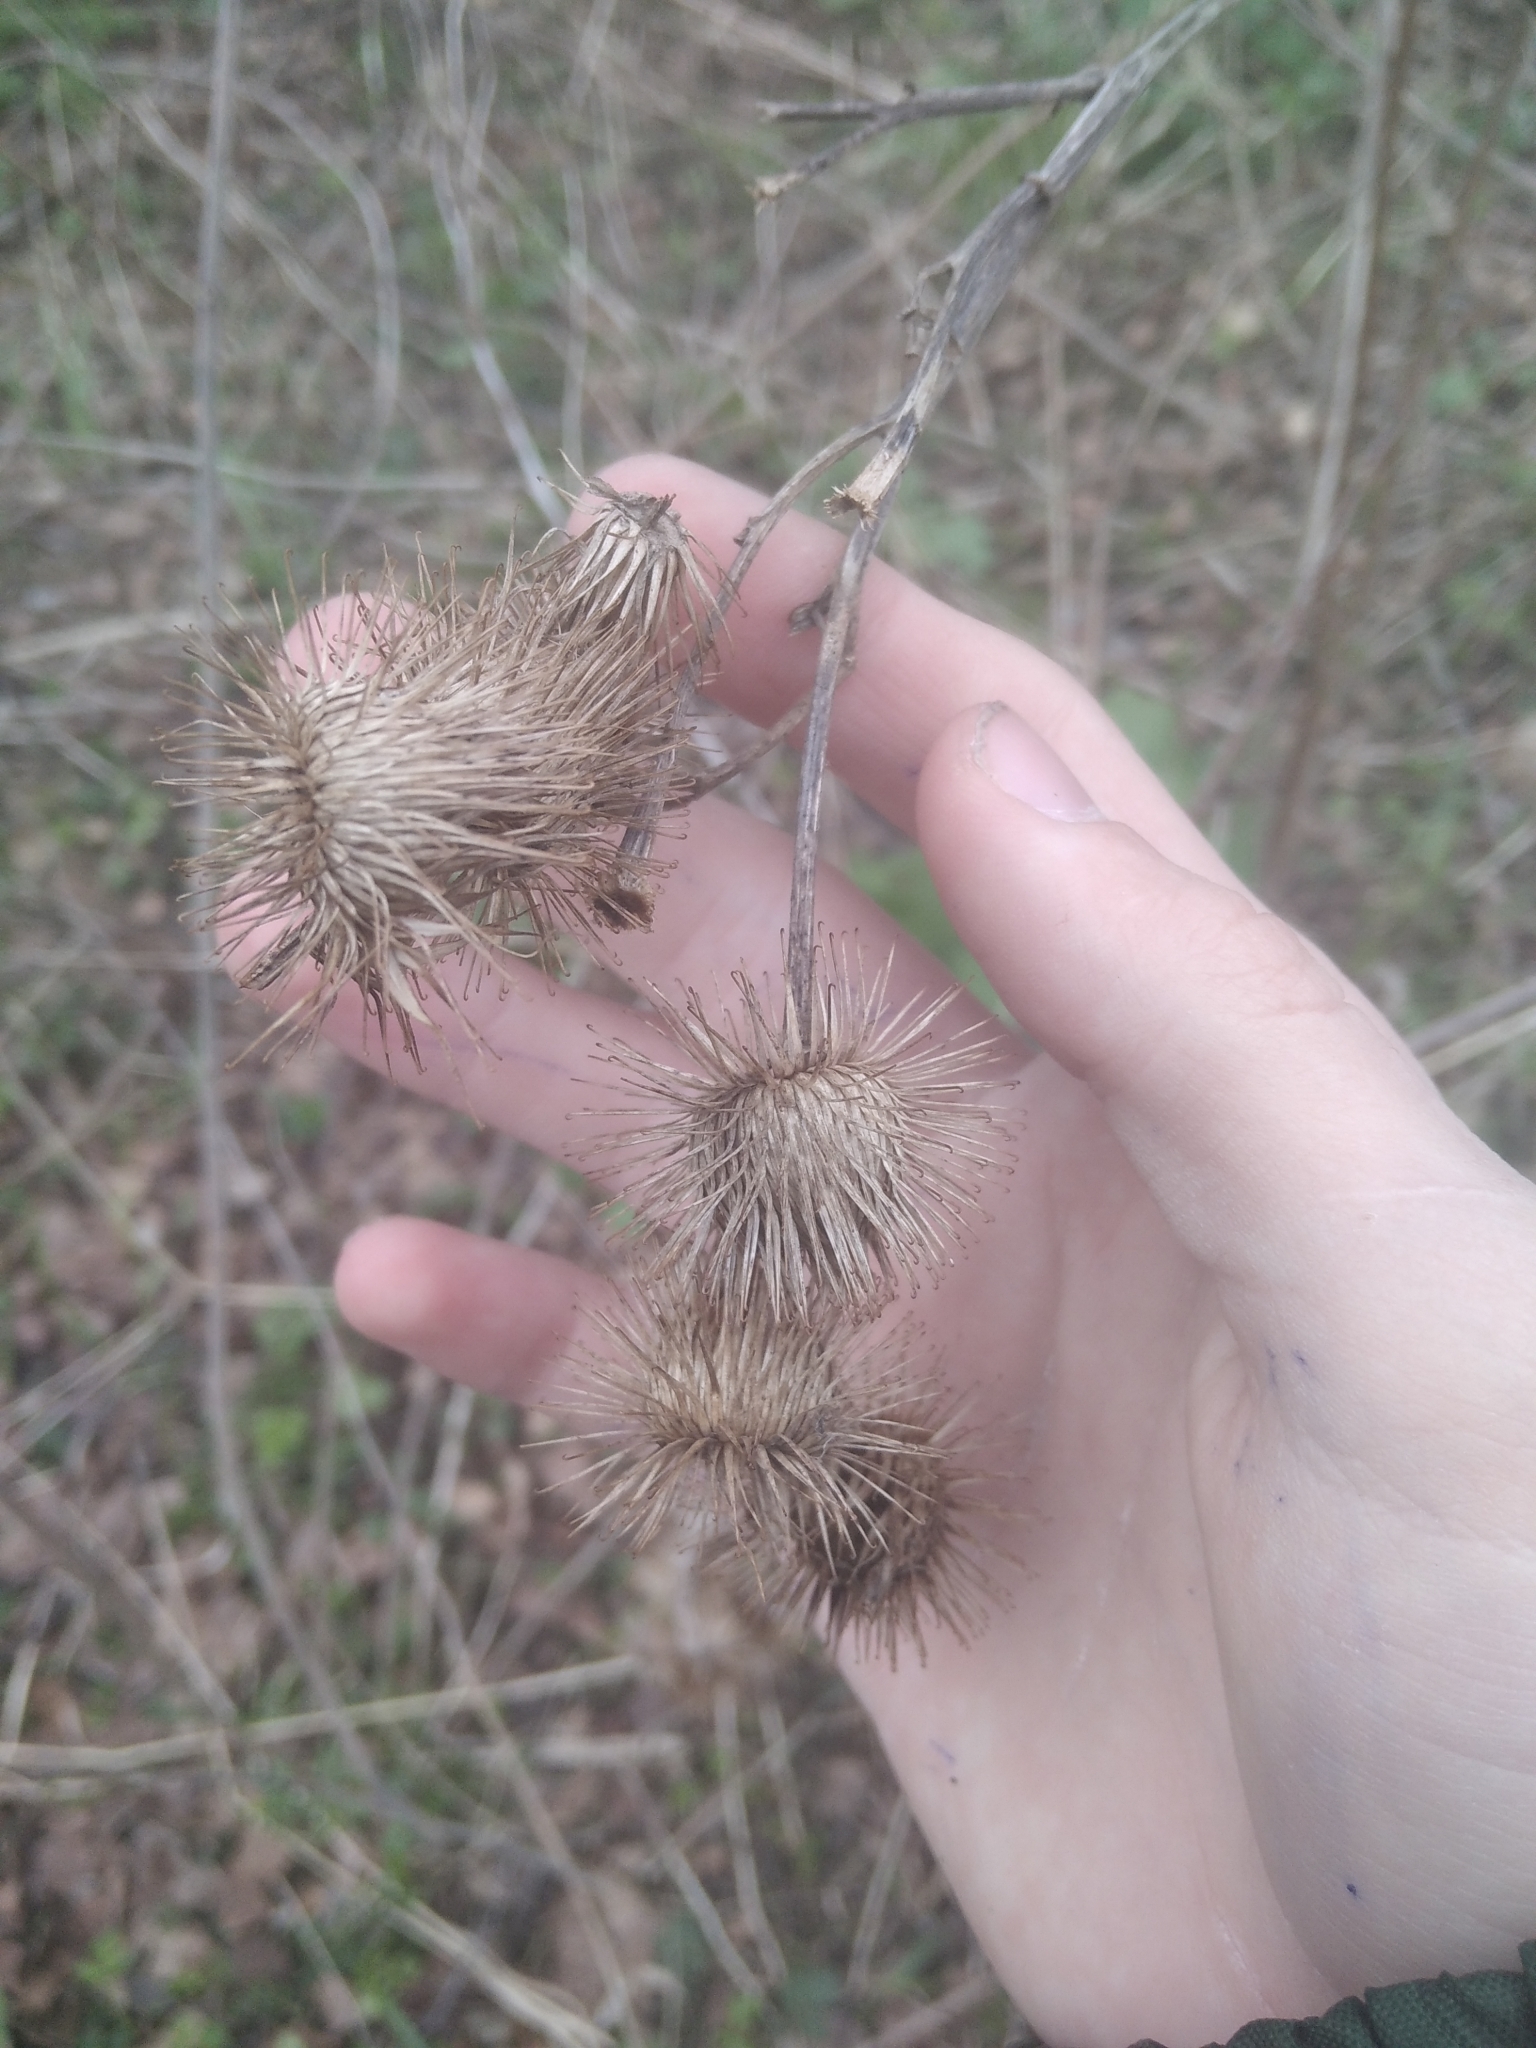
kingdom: Plantae
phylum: Tracheophyta
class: Magnoliopsida
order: Asterales
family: Asteraceae
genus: Arctium
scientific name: Arctium nemorosum
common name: Wood burdock
